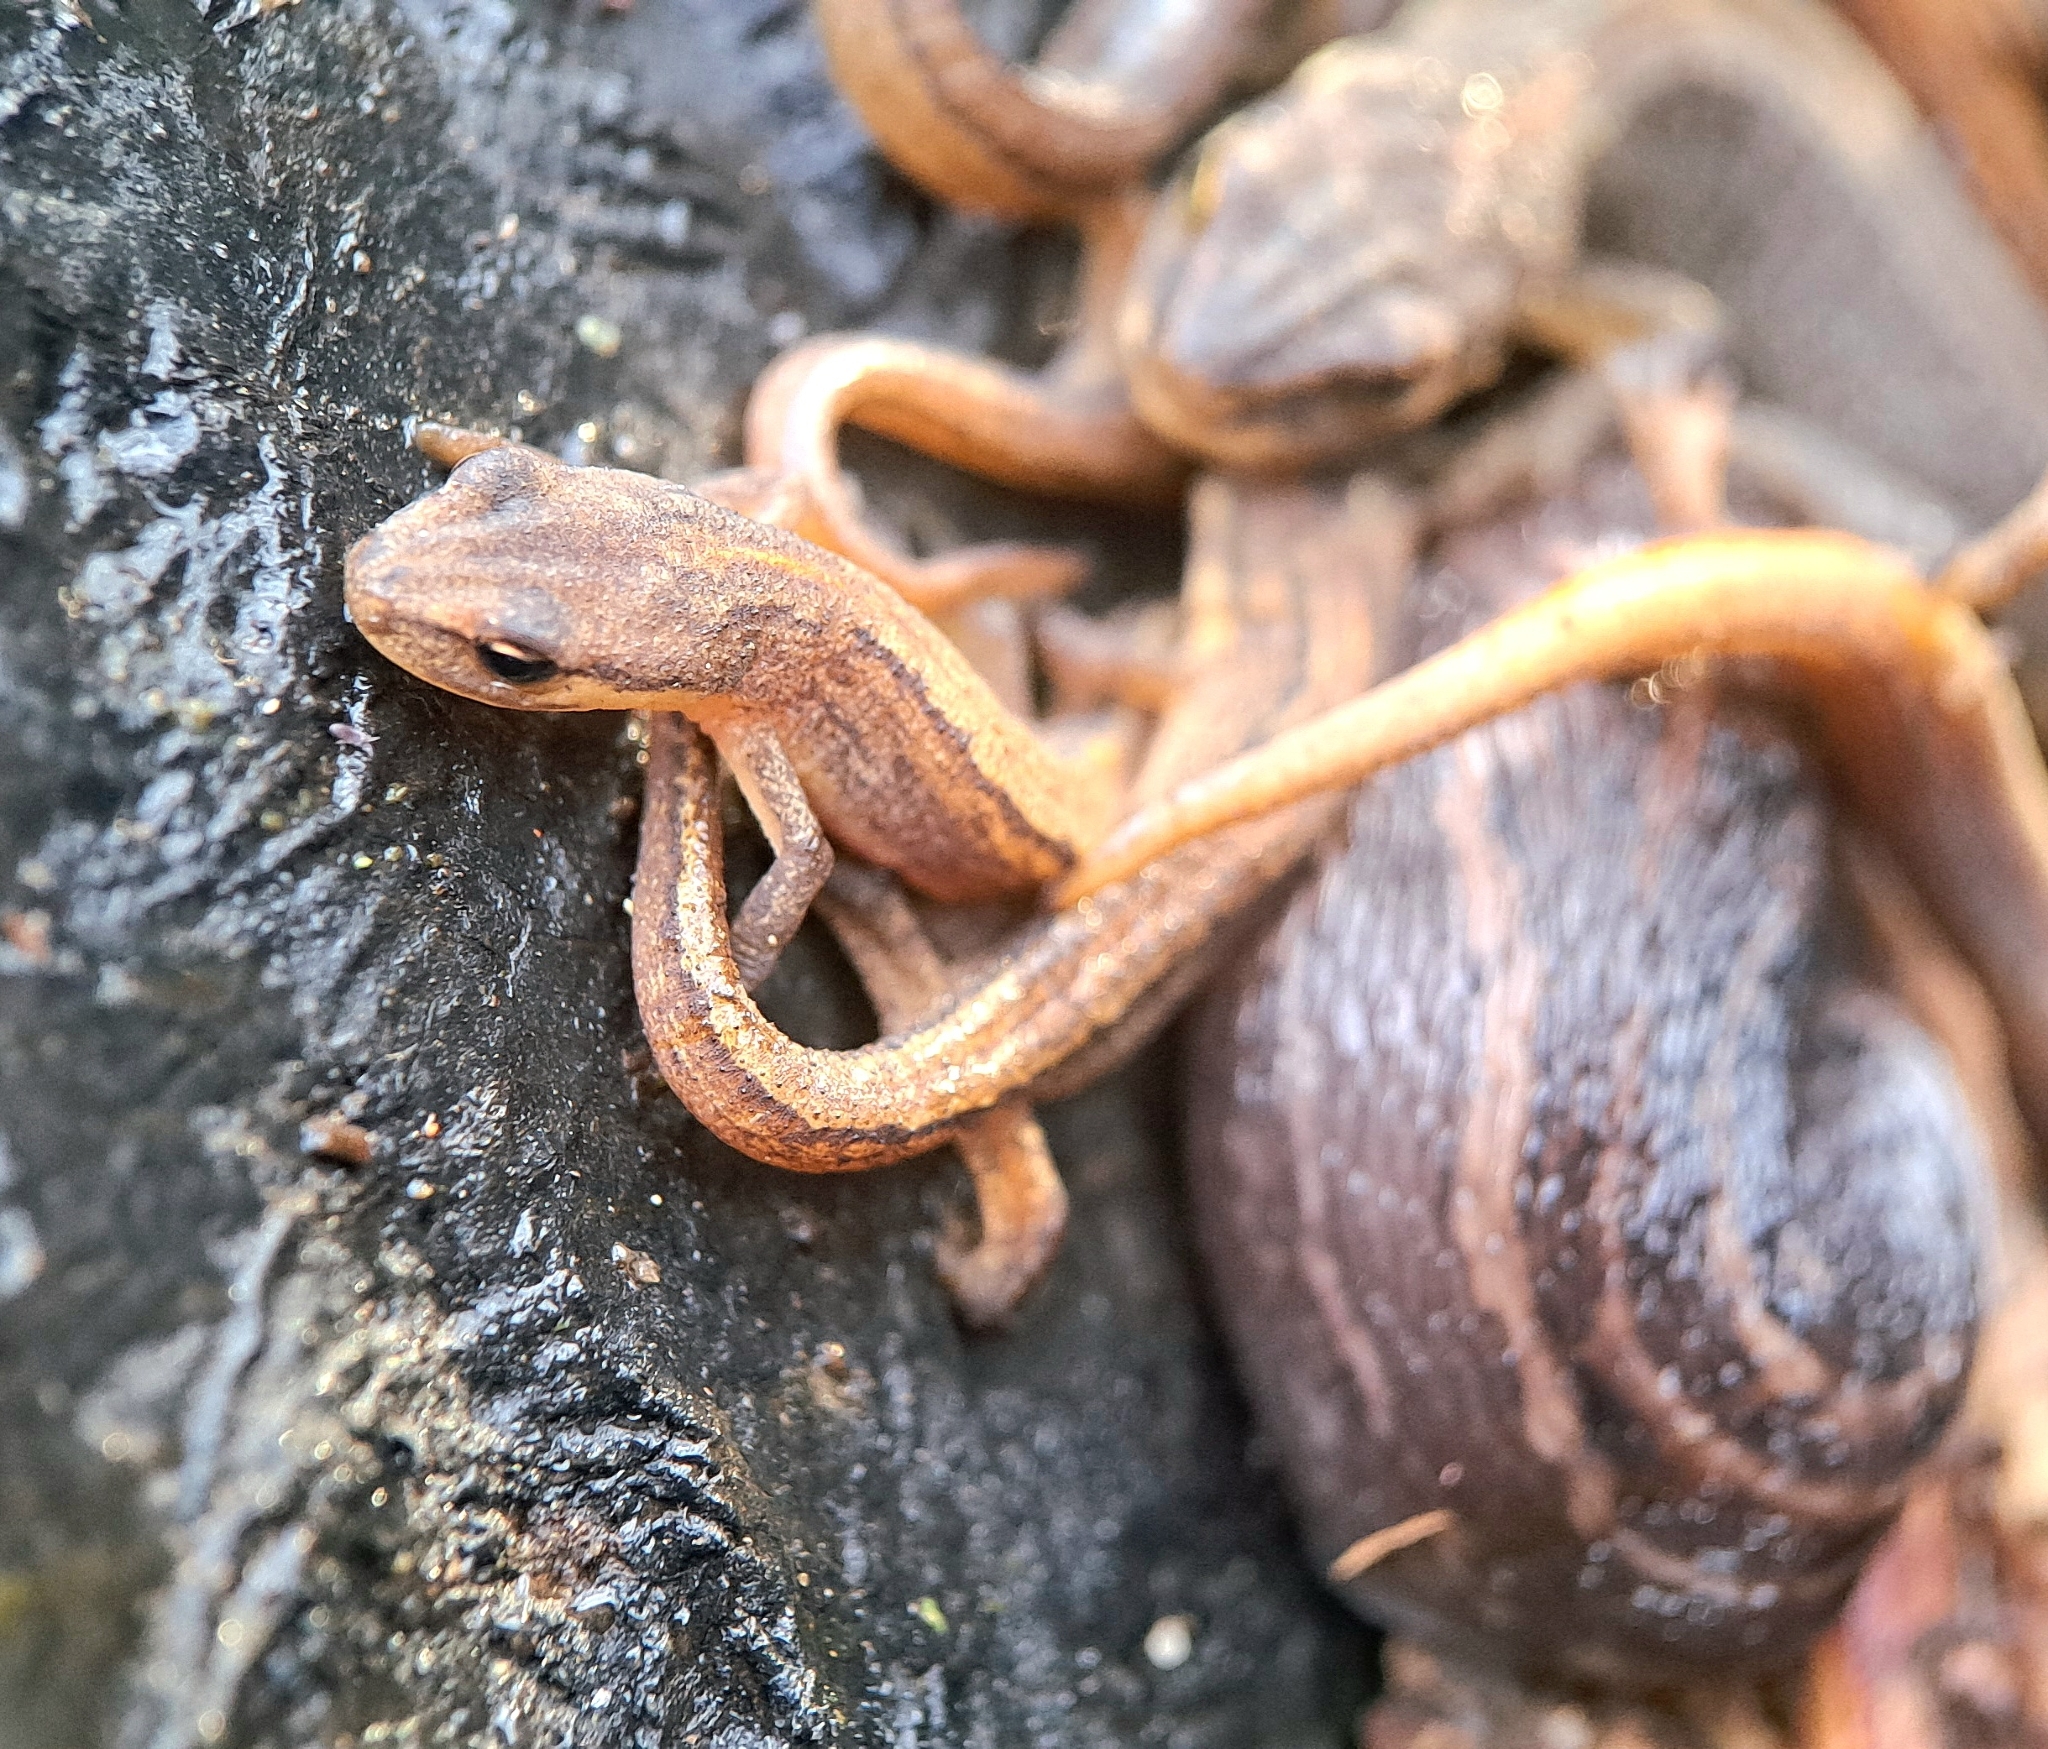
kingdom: Animalia
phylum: Chordata
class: Amphibia
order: Caudata
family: Salamandridae
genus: Lissotriton
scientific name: Lissotriton vulgaris
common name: Smooth newt
